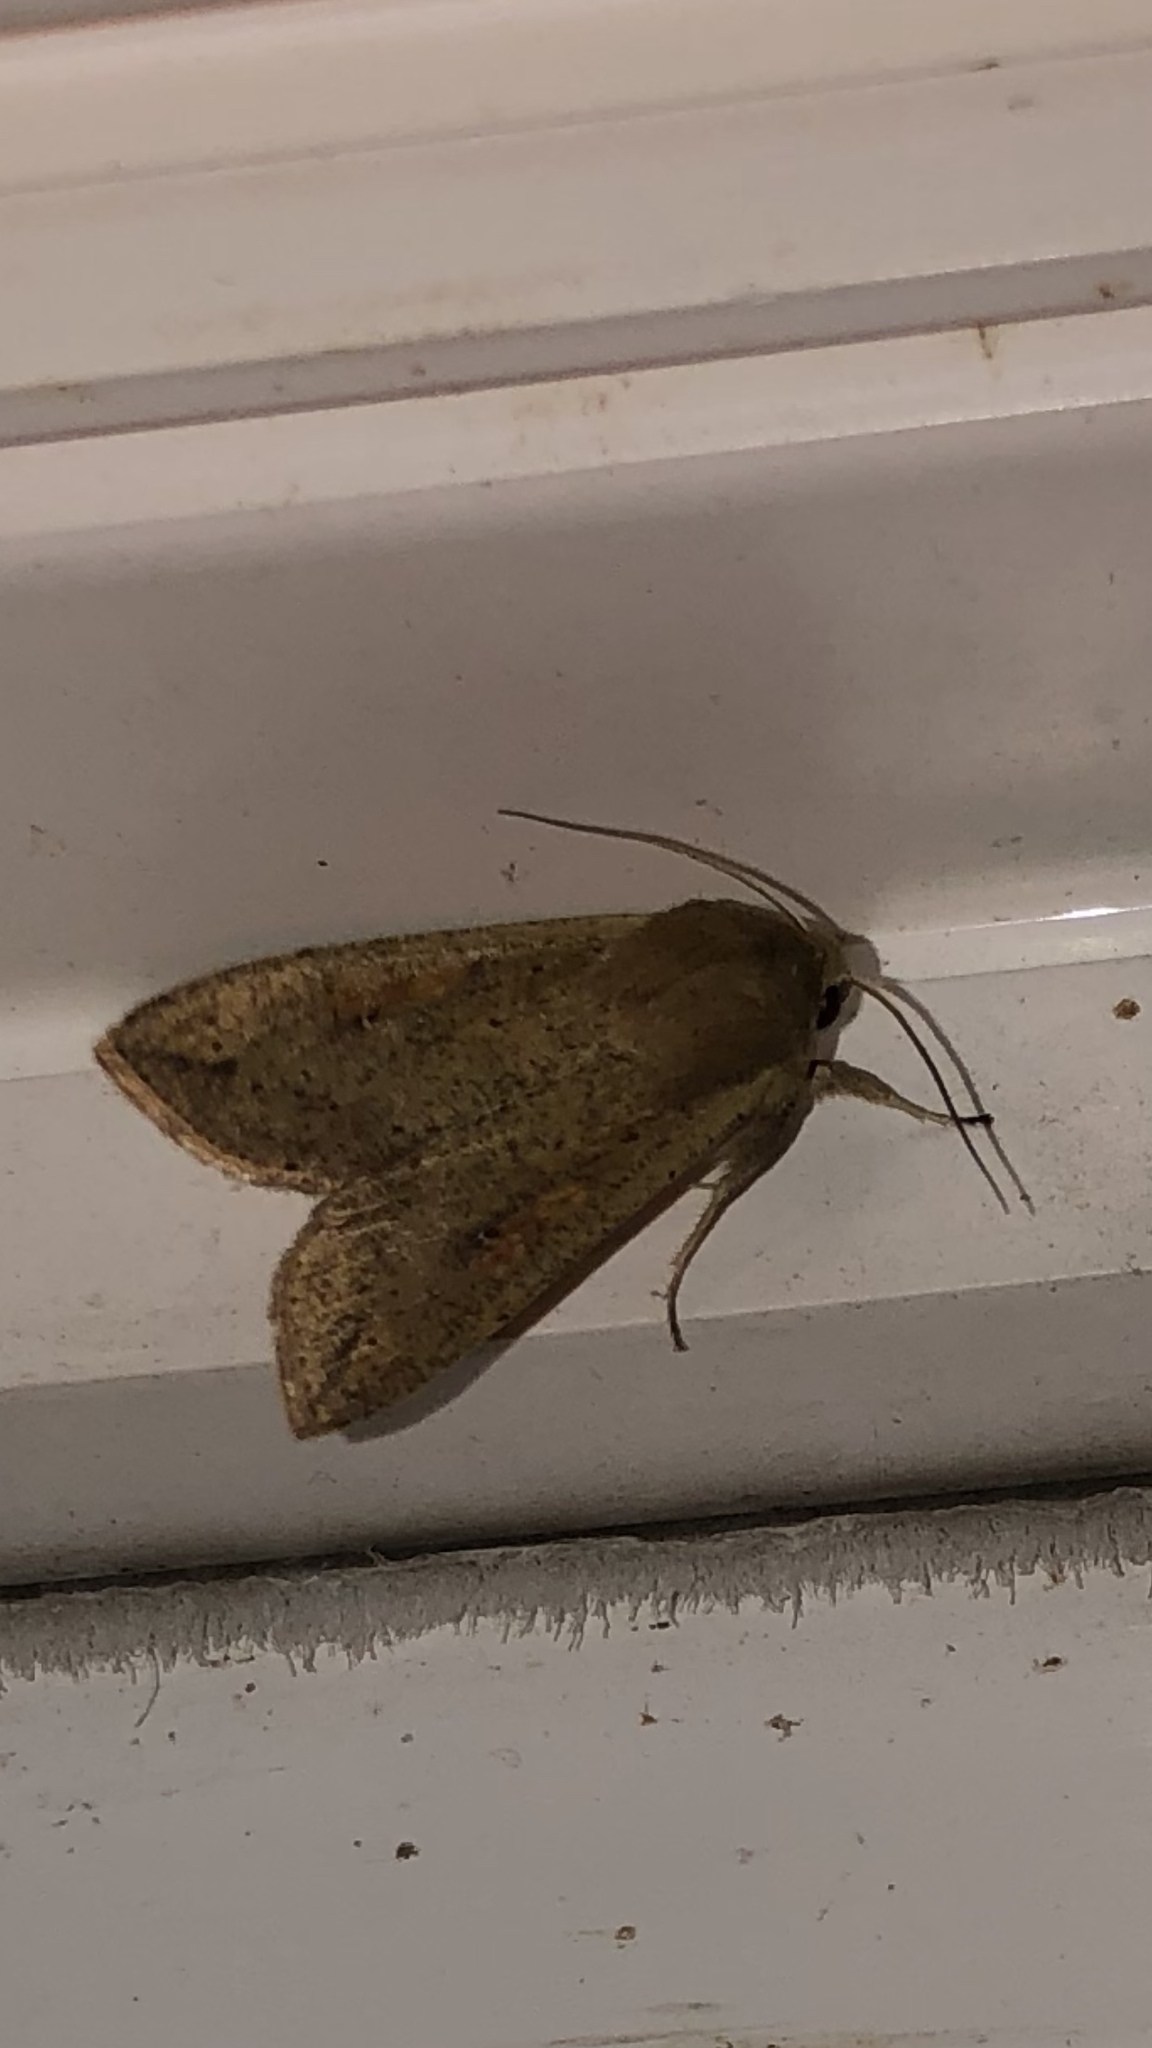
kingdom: Animalia
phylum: Arthropoda
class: Insecta
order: Lepidoptera
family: Noctuidae
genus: Mythimna
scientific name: Mythimna unipuncta
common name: White-speck
